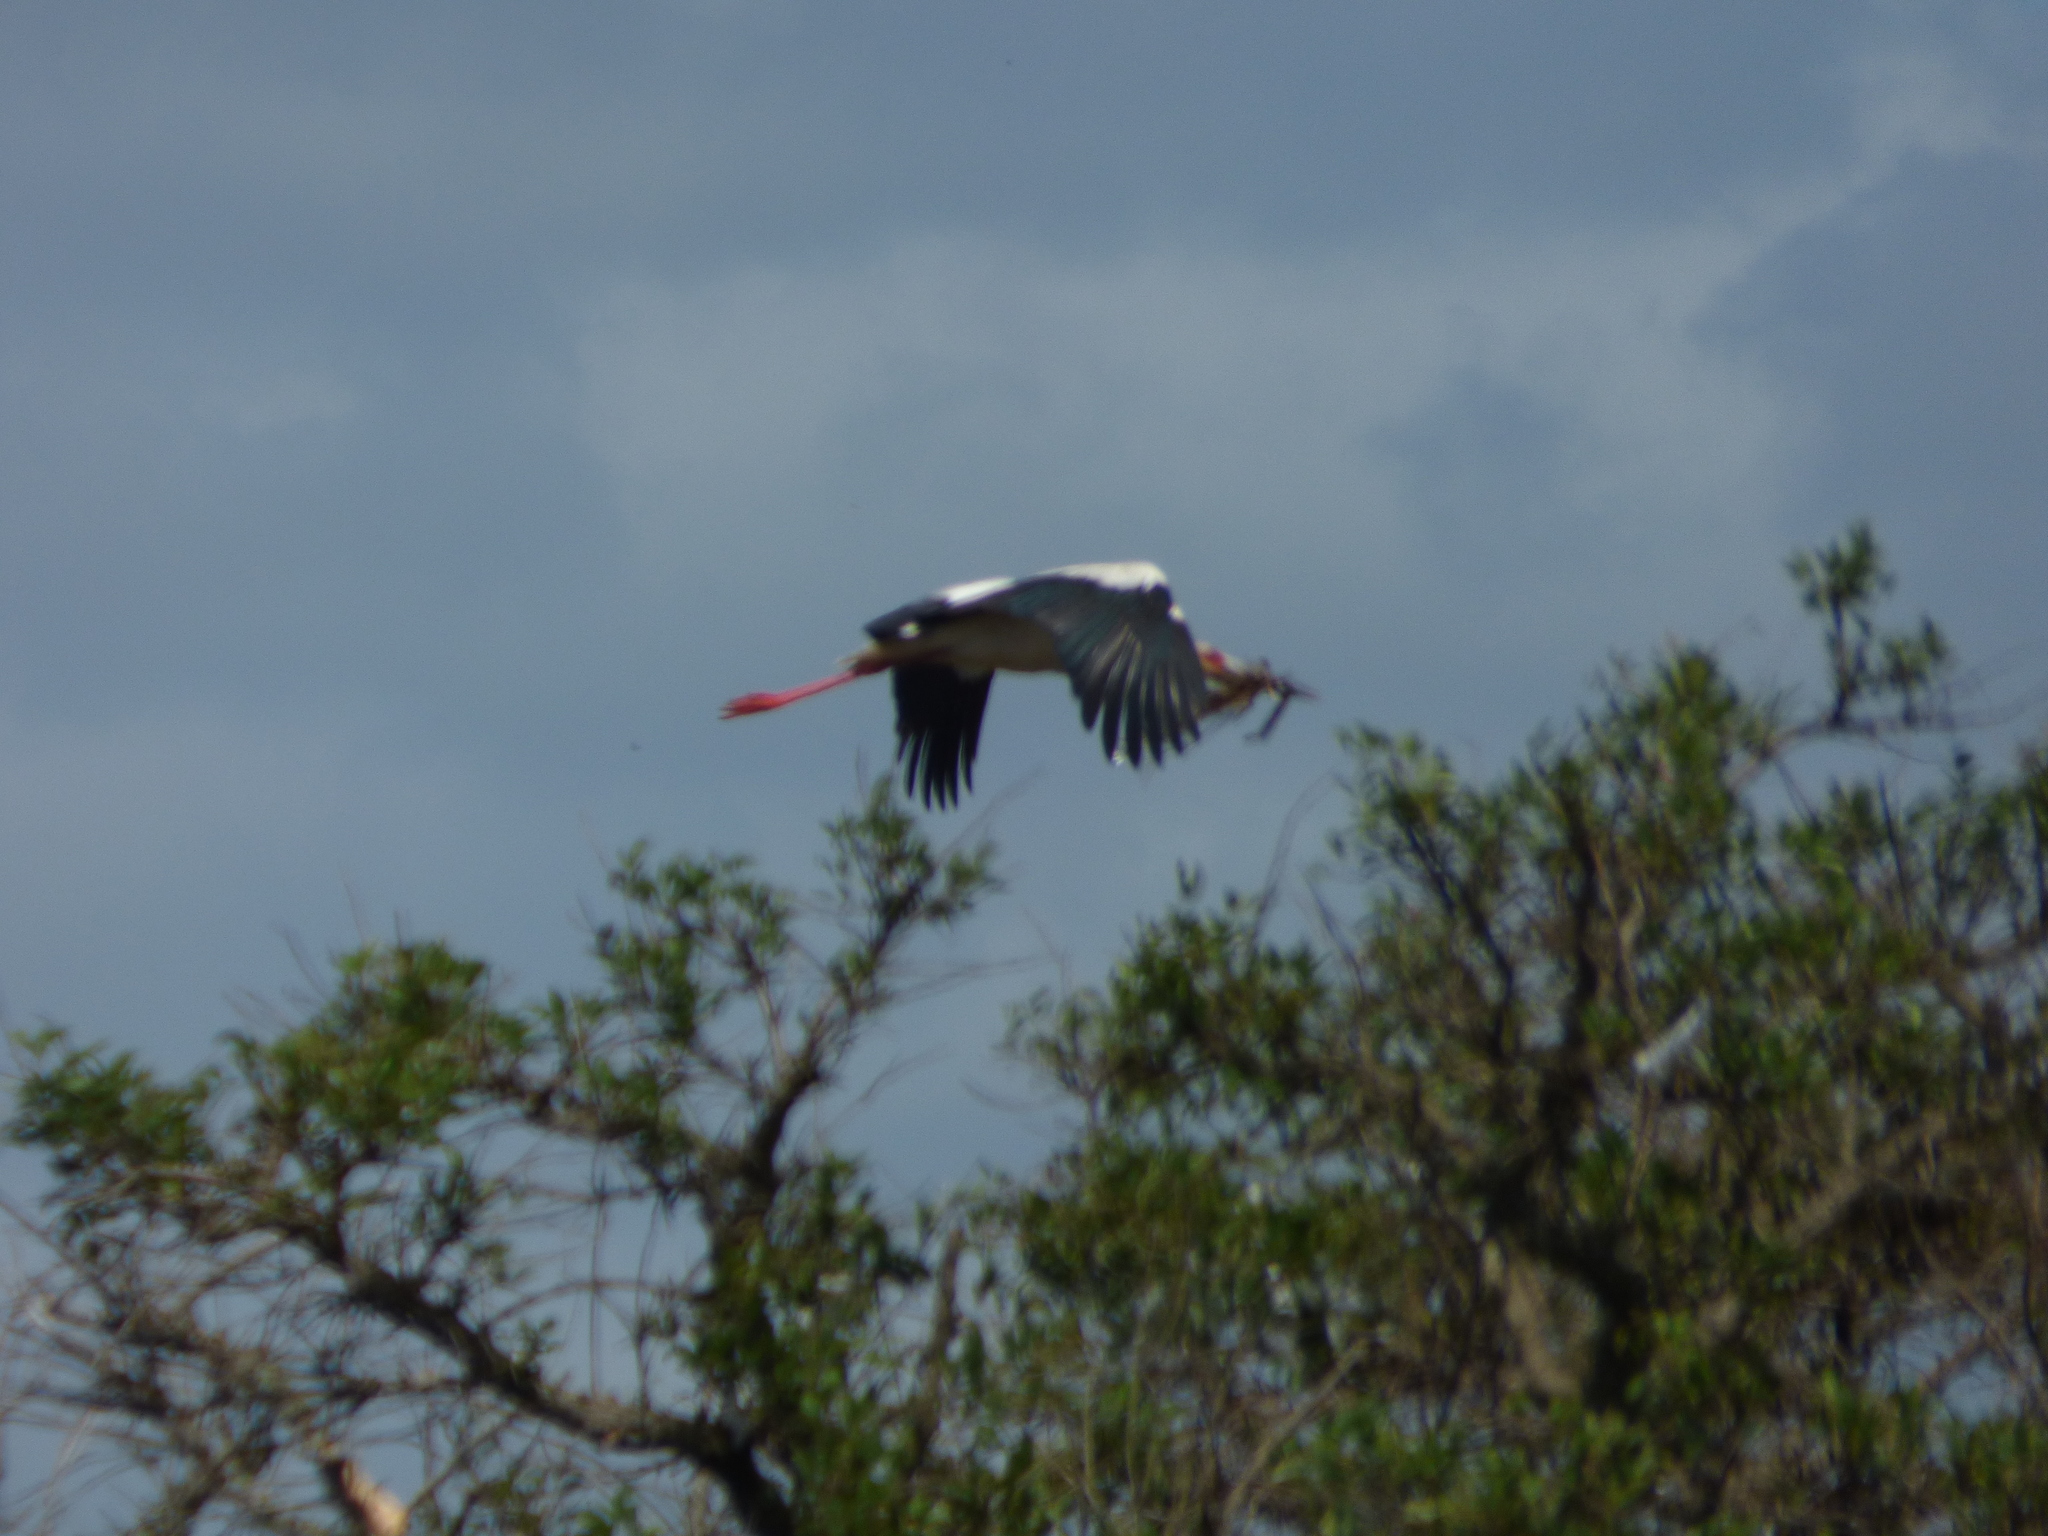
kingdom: Animalia
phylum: Chordata
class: Aves
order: Ciconiiformes
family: Ciconiidae
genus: Ciconia
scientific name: Ciconia maguari
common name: Maguari stork
